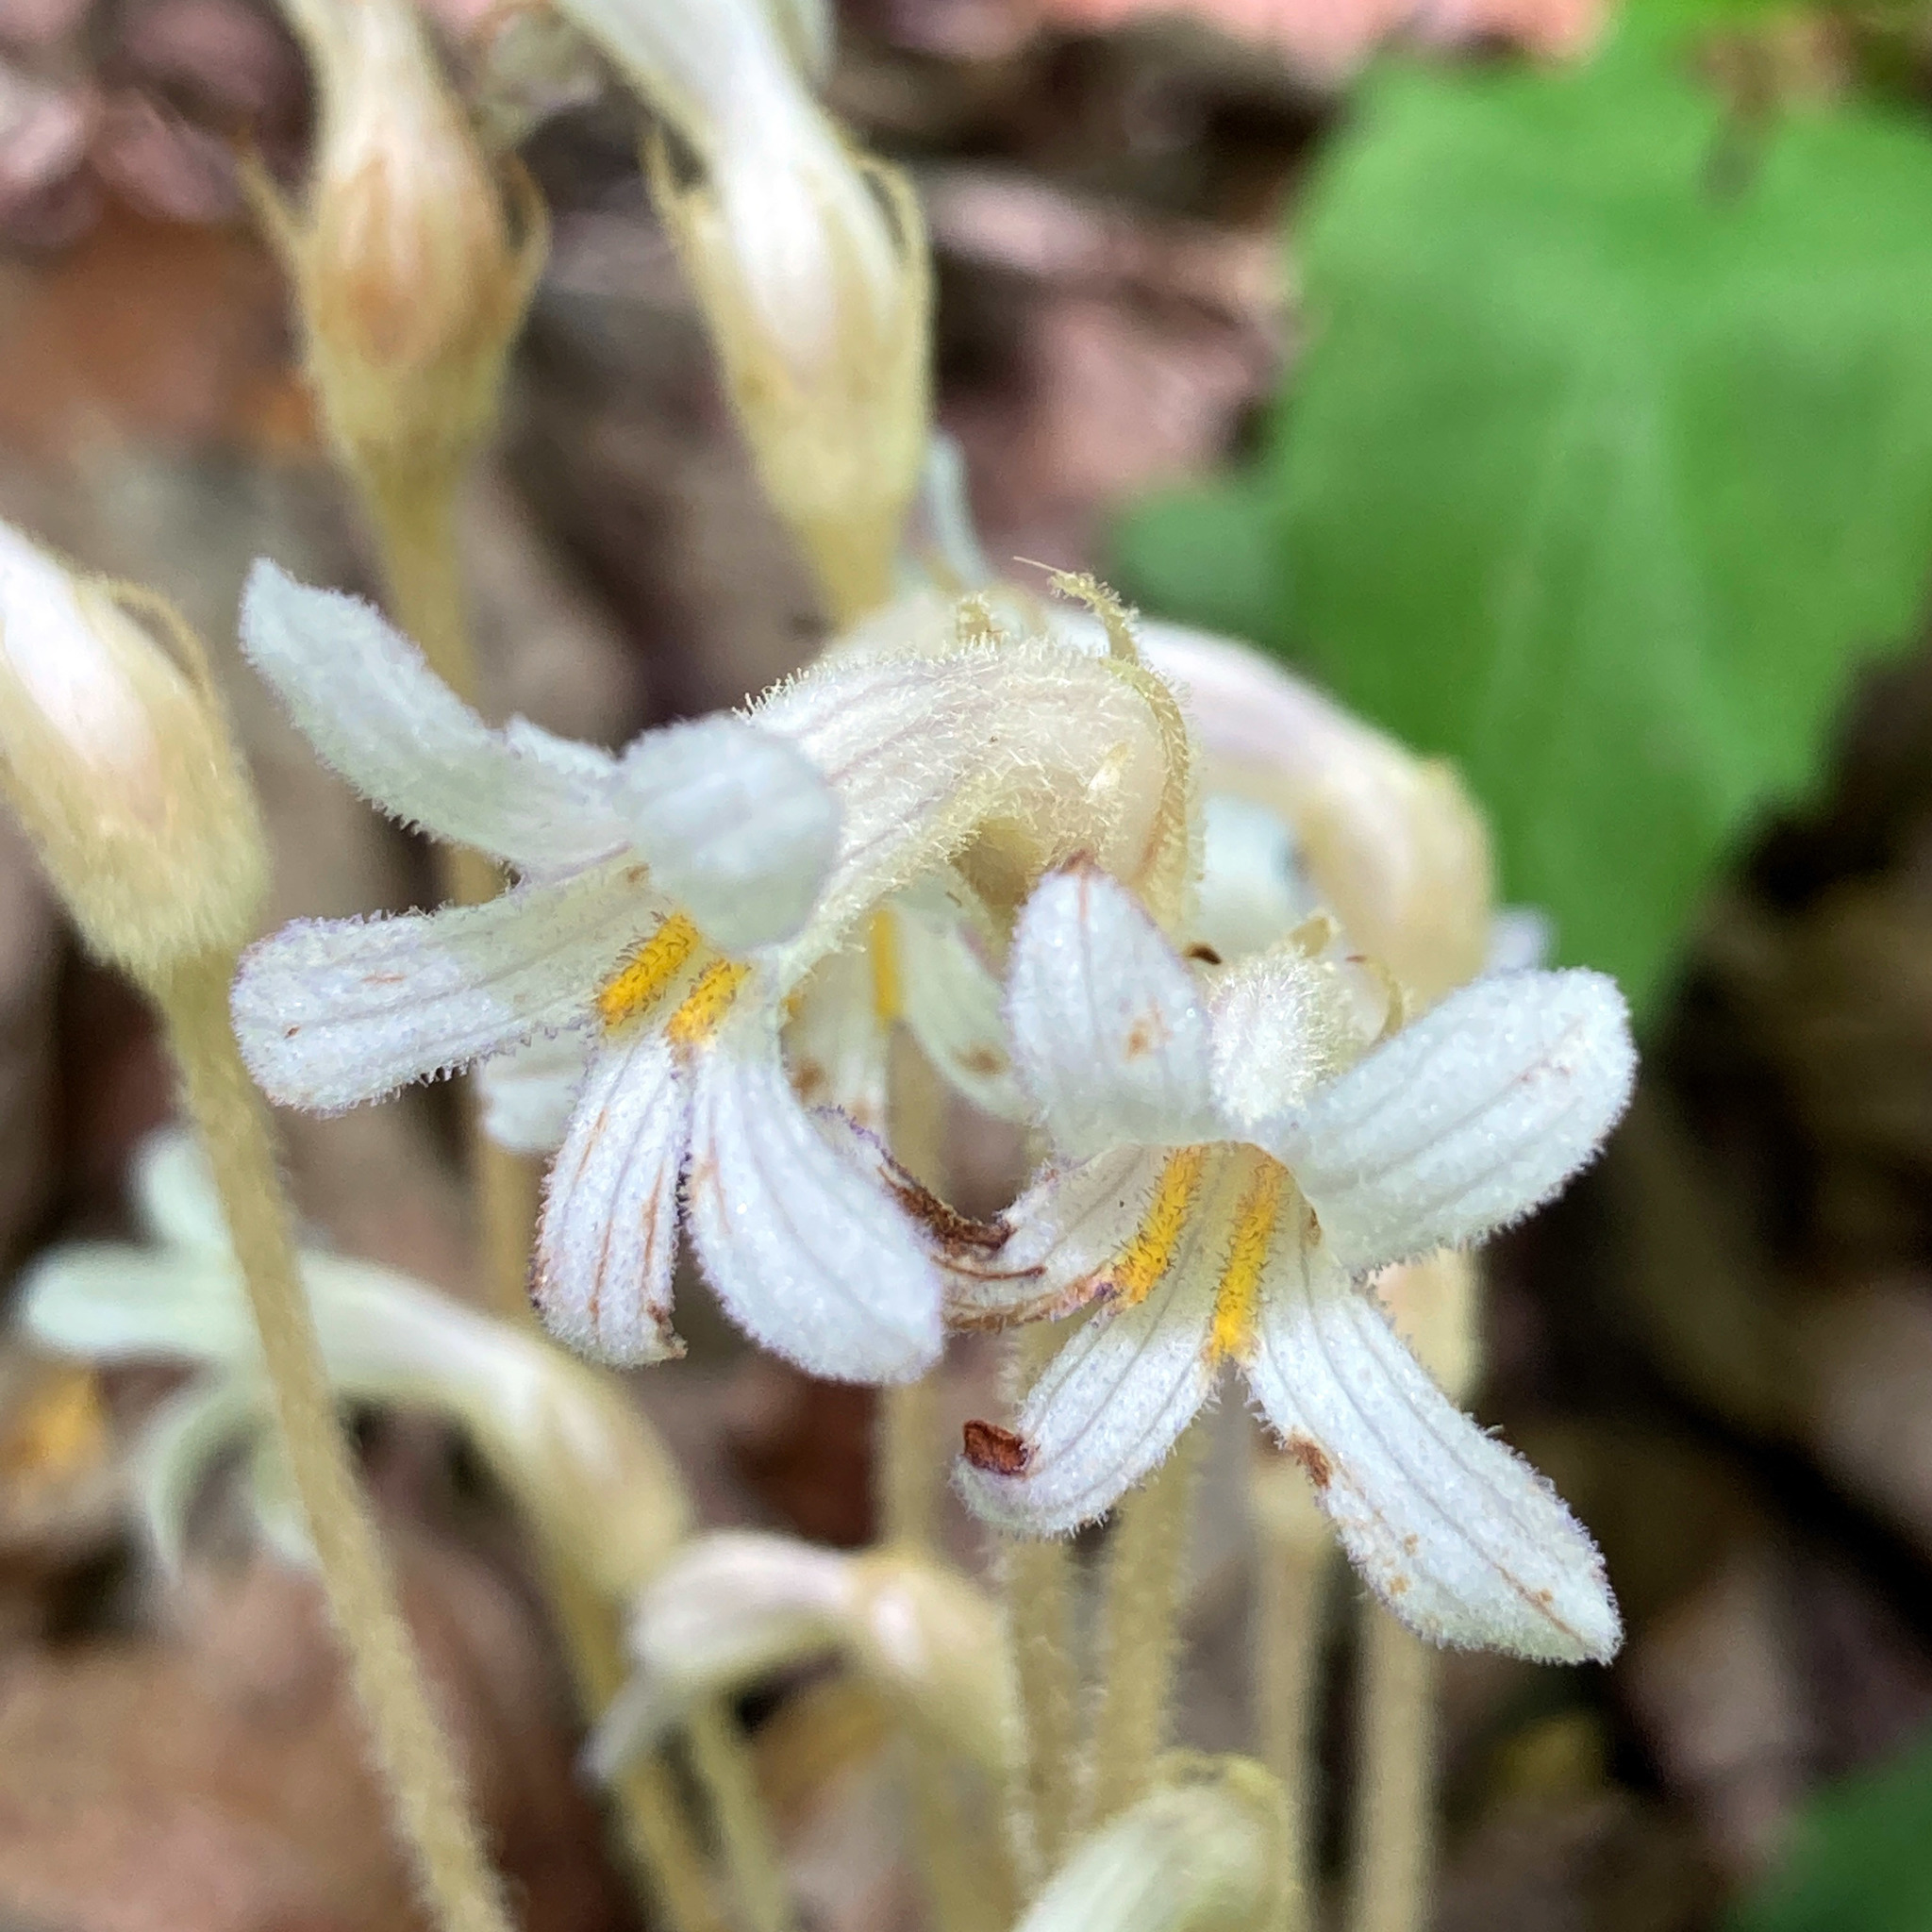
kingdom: Plantae
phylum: Tracheophyta
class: Magnoliopsida
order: Lamiales
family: Orobanchaceae
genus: Aphyllon
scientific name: Aphyllon uniflorum
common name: One-flowered broomrape
